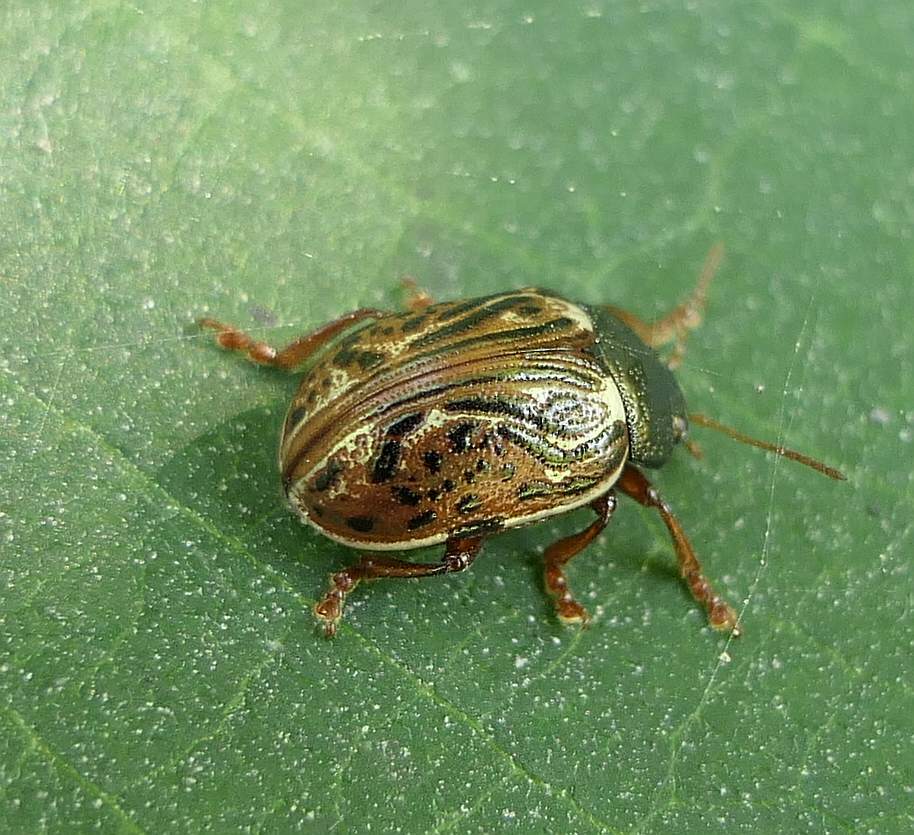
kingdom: Animalia
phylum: Arthropoda
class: Insecta
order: Coleoptera
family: Chrysomelidae
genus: Calligrapha
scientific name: Calligrapha alni
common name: Russet alder leaf beetle
